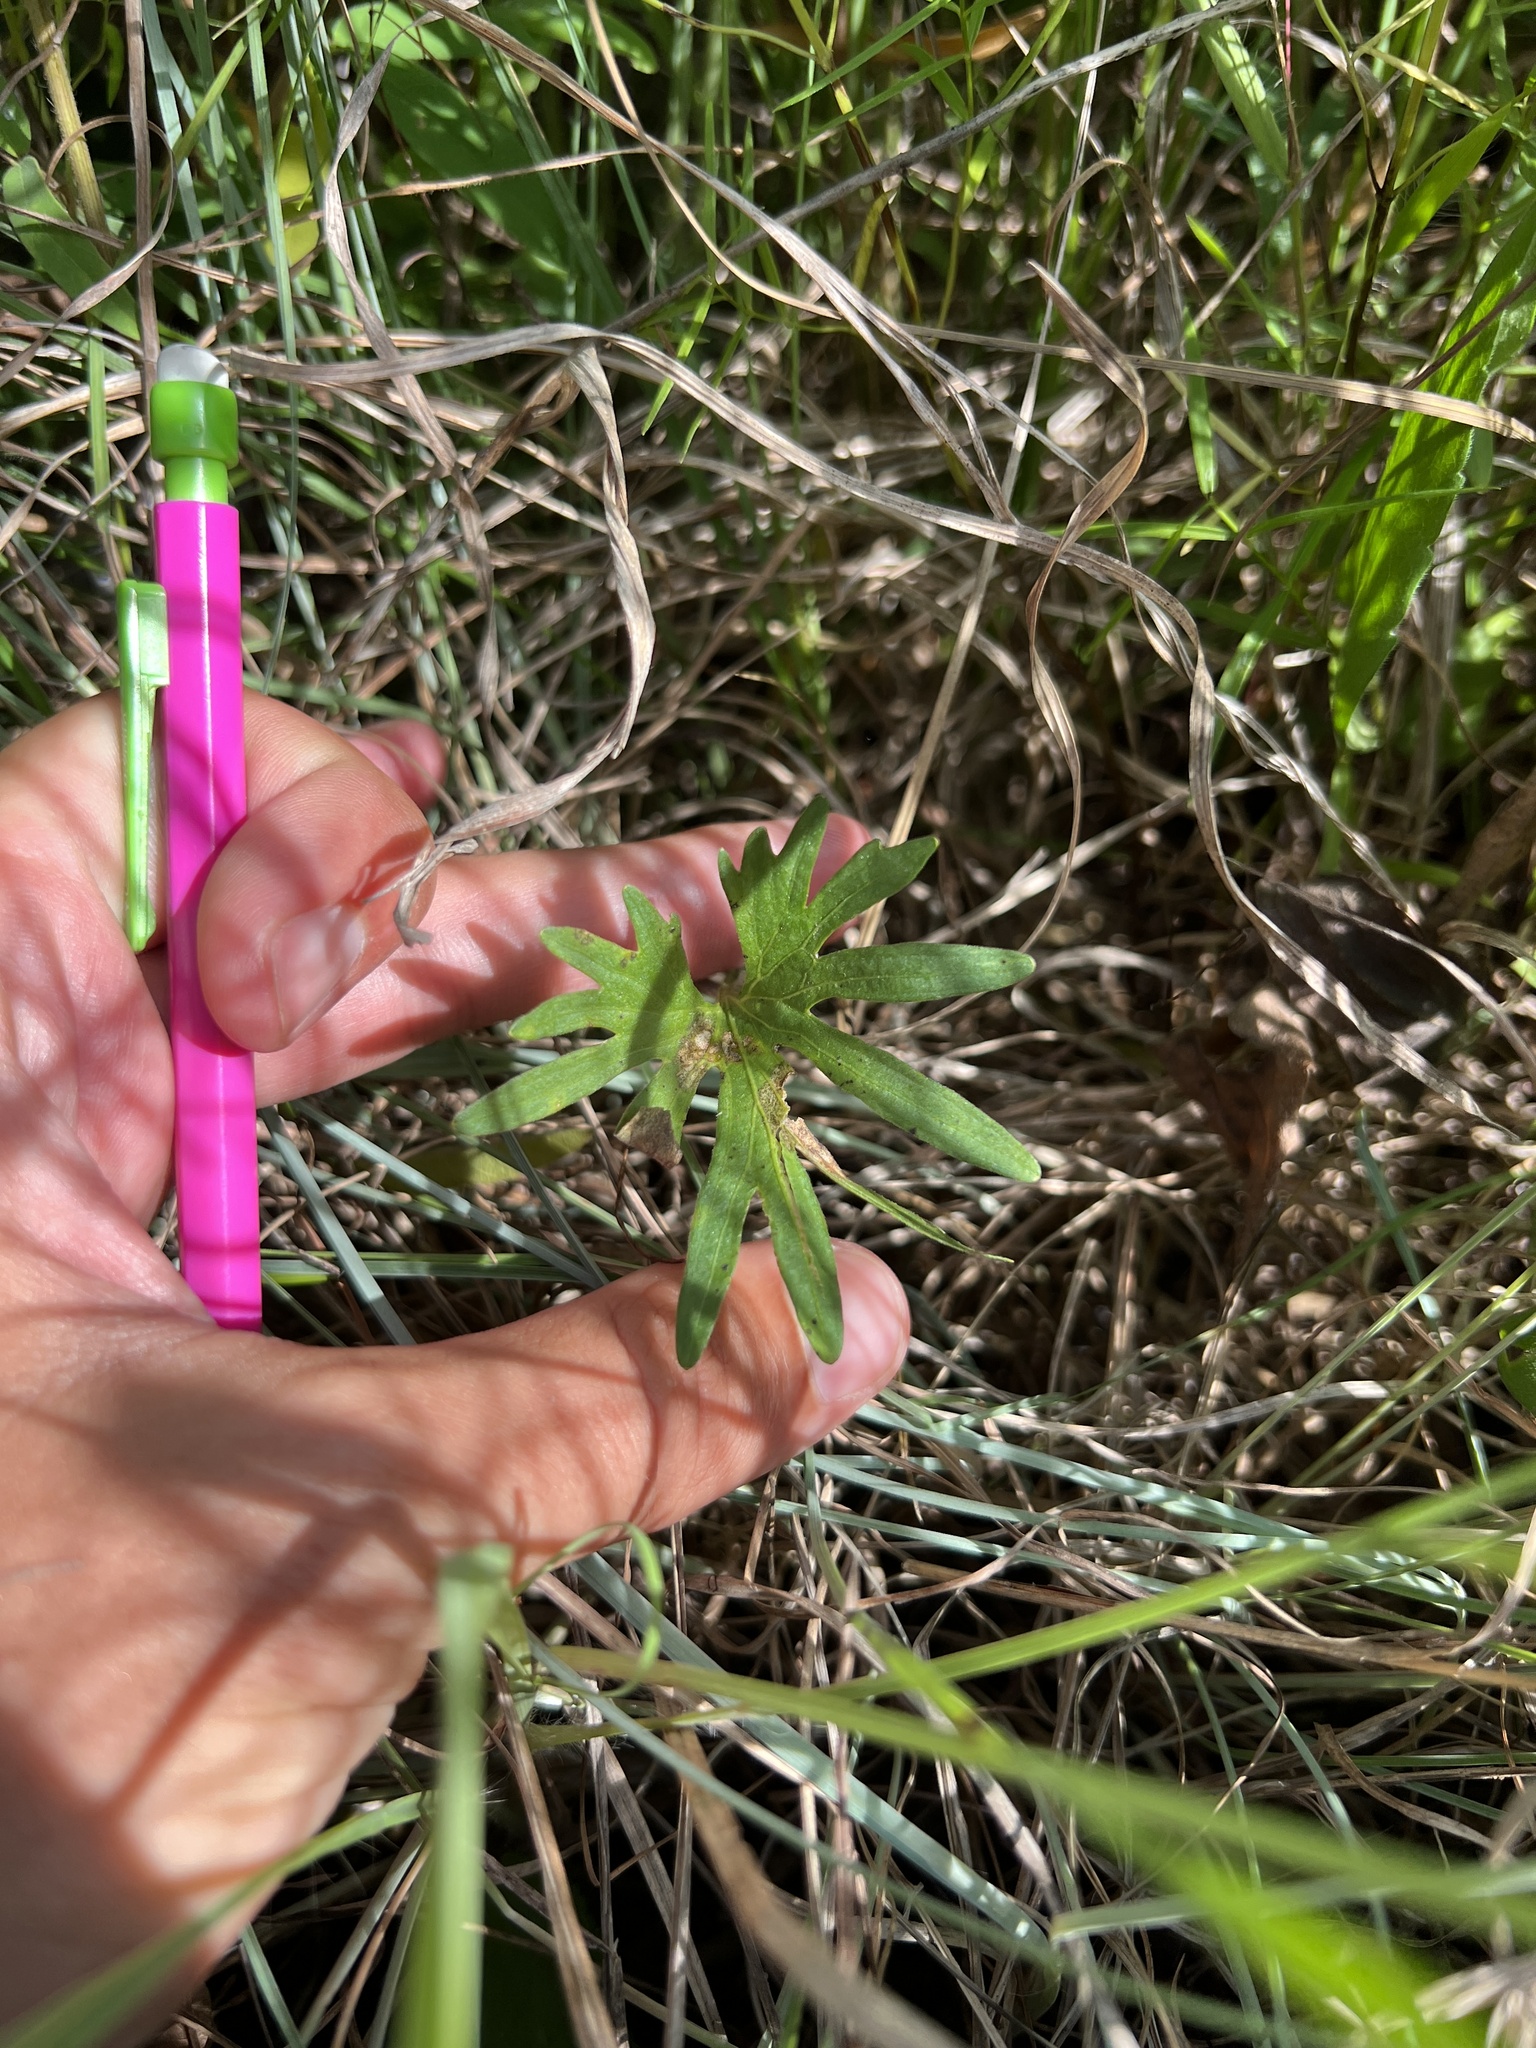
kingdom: Plantae
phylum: Tracheophyta
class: Magnoliopsida
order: Malpighiales
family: Violaceae
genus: Viola
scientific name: Viola pedatifida
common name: Prairie violet
